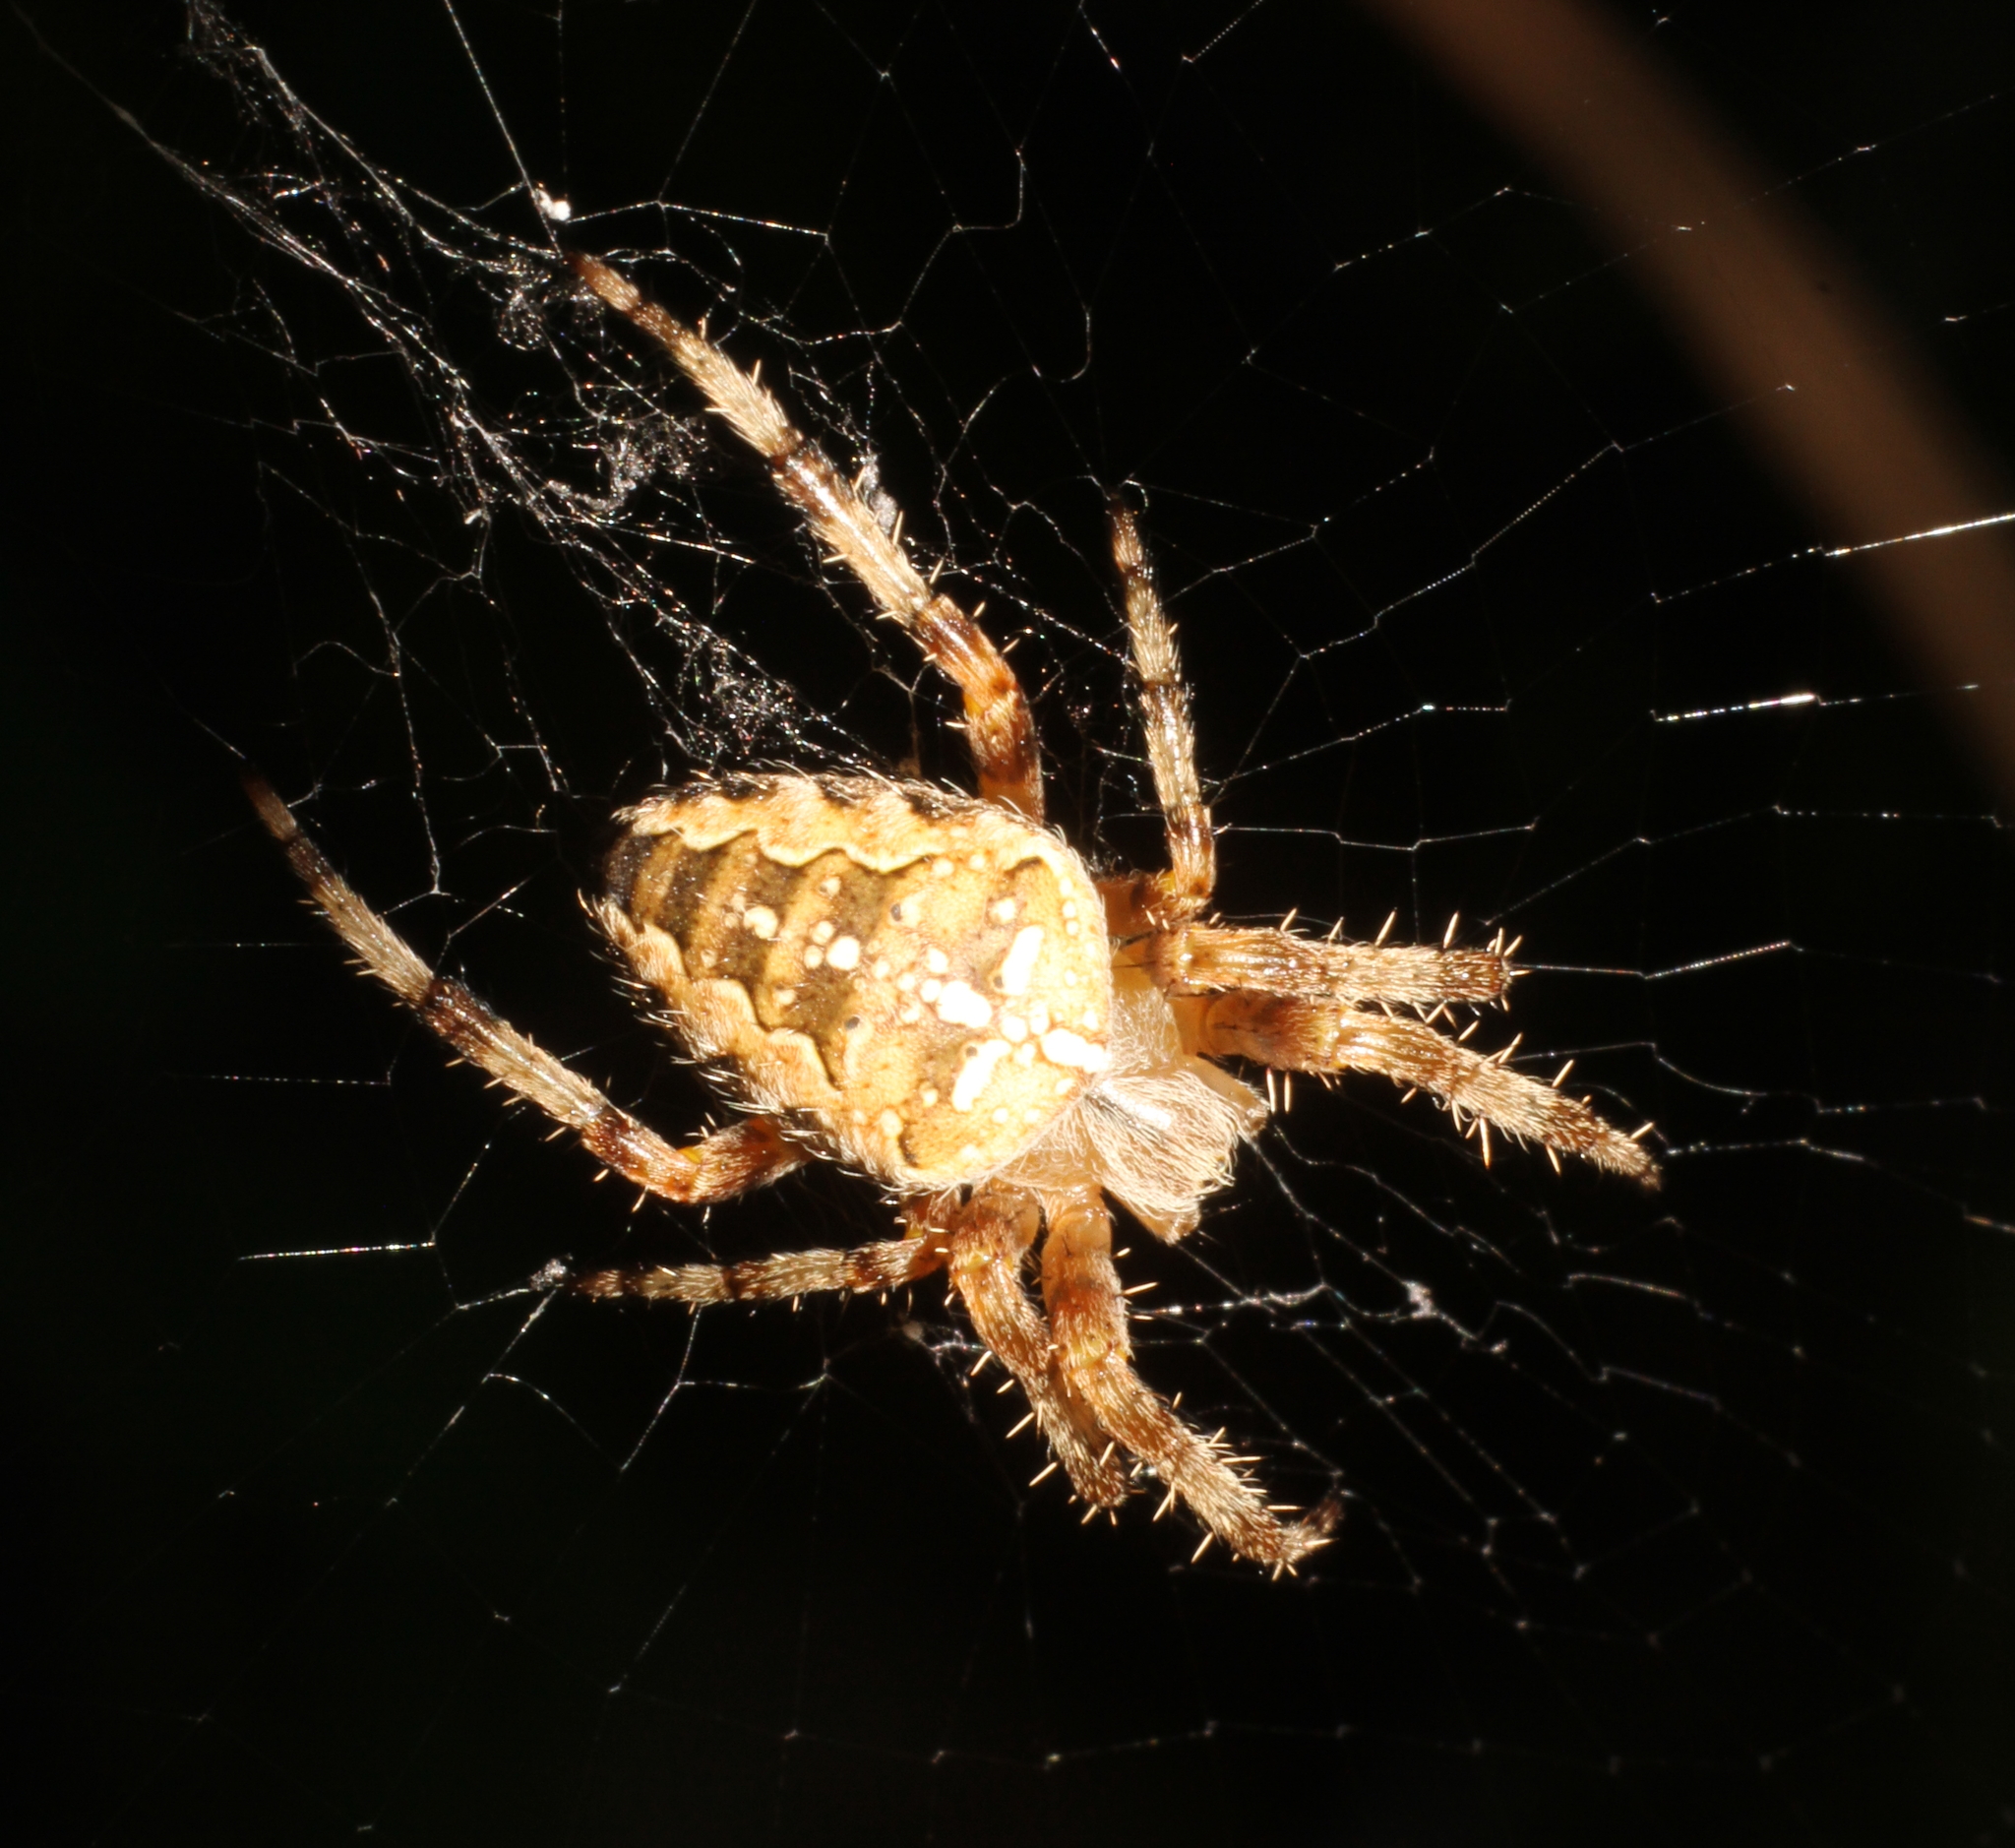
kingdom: Animalia
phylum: Arthropoda
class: Arachnida
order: Araneae
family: Araneidae
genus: Araneus
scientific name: Araneus diadematus
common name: Cross orbweaver
